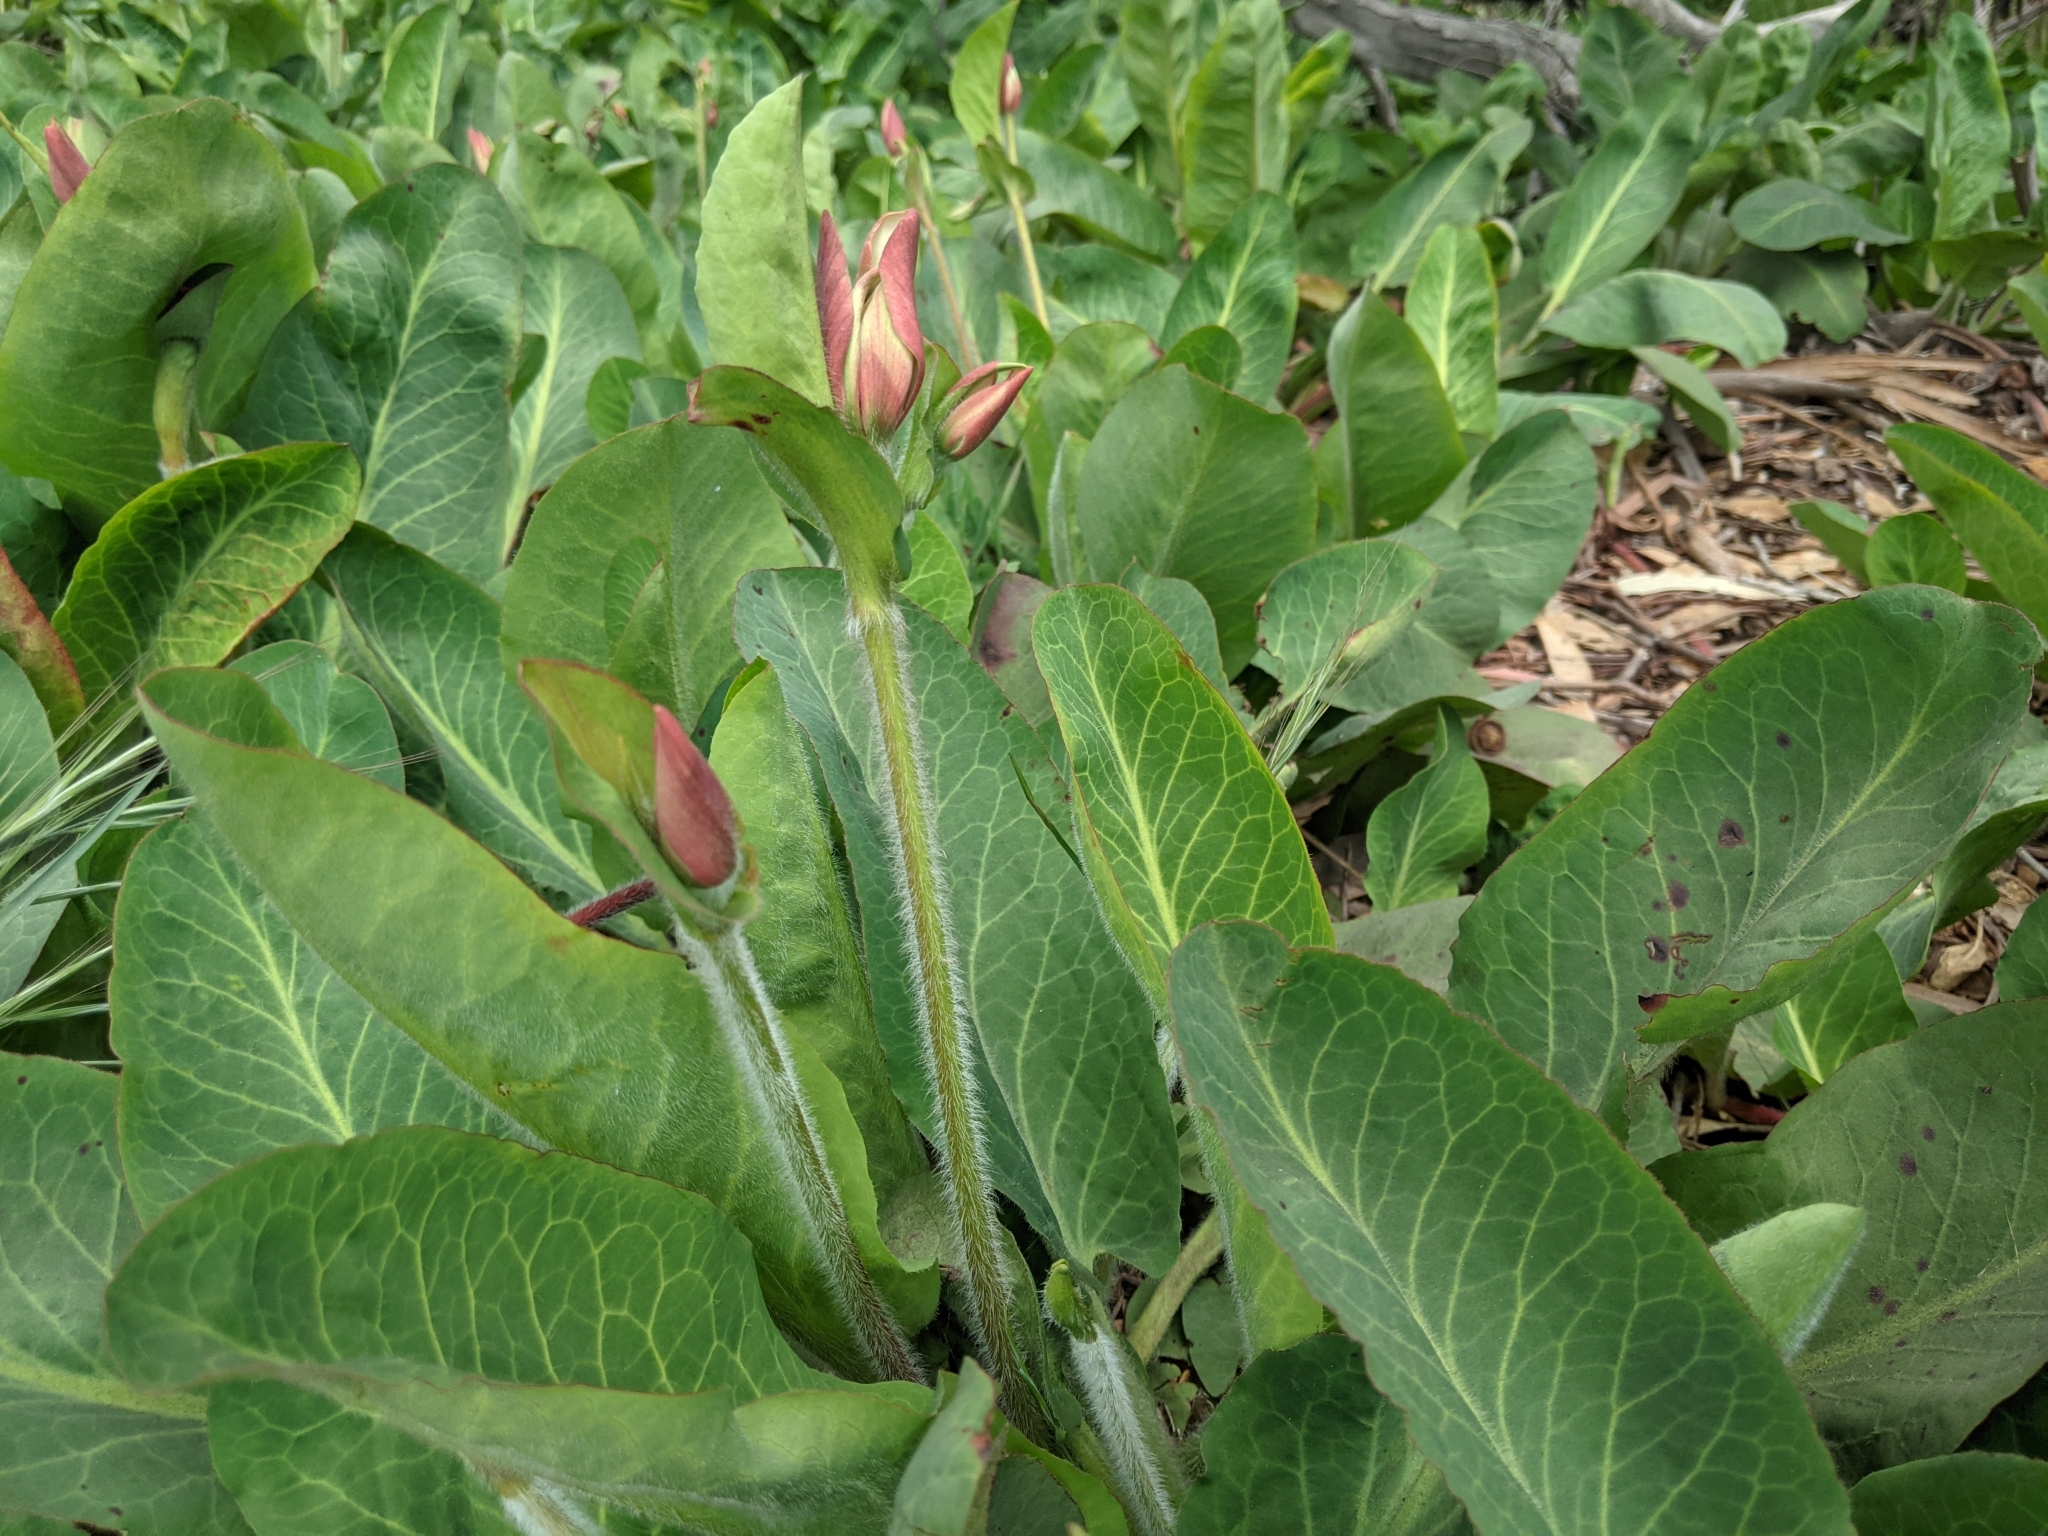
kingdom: Plantae
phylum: Tracheophyta
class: Magnoliopsida
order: Piperales
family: Saururaceae
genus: Anemopsis
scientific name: Anemopsis californica
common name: Apache-beads
